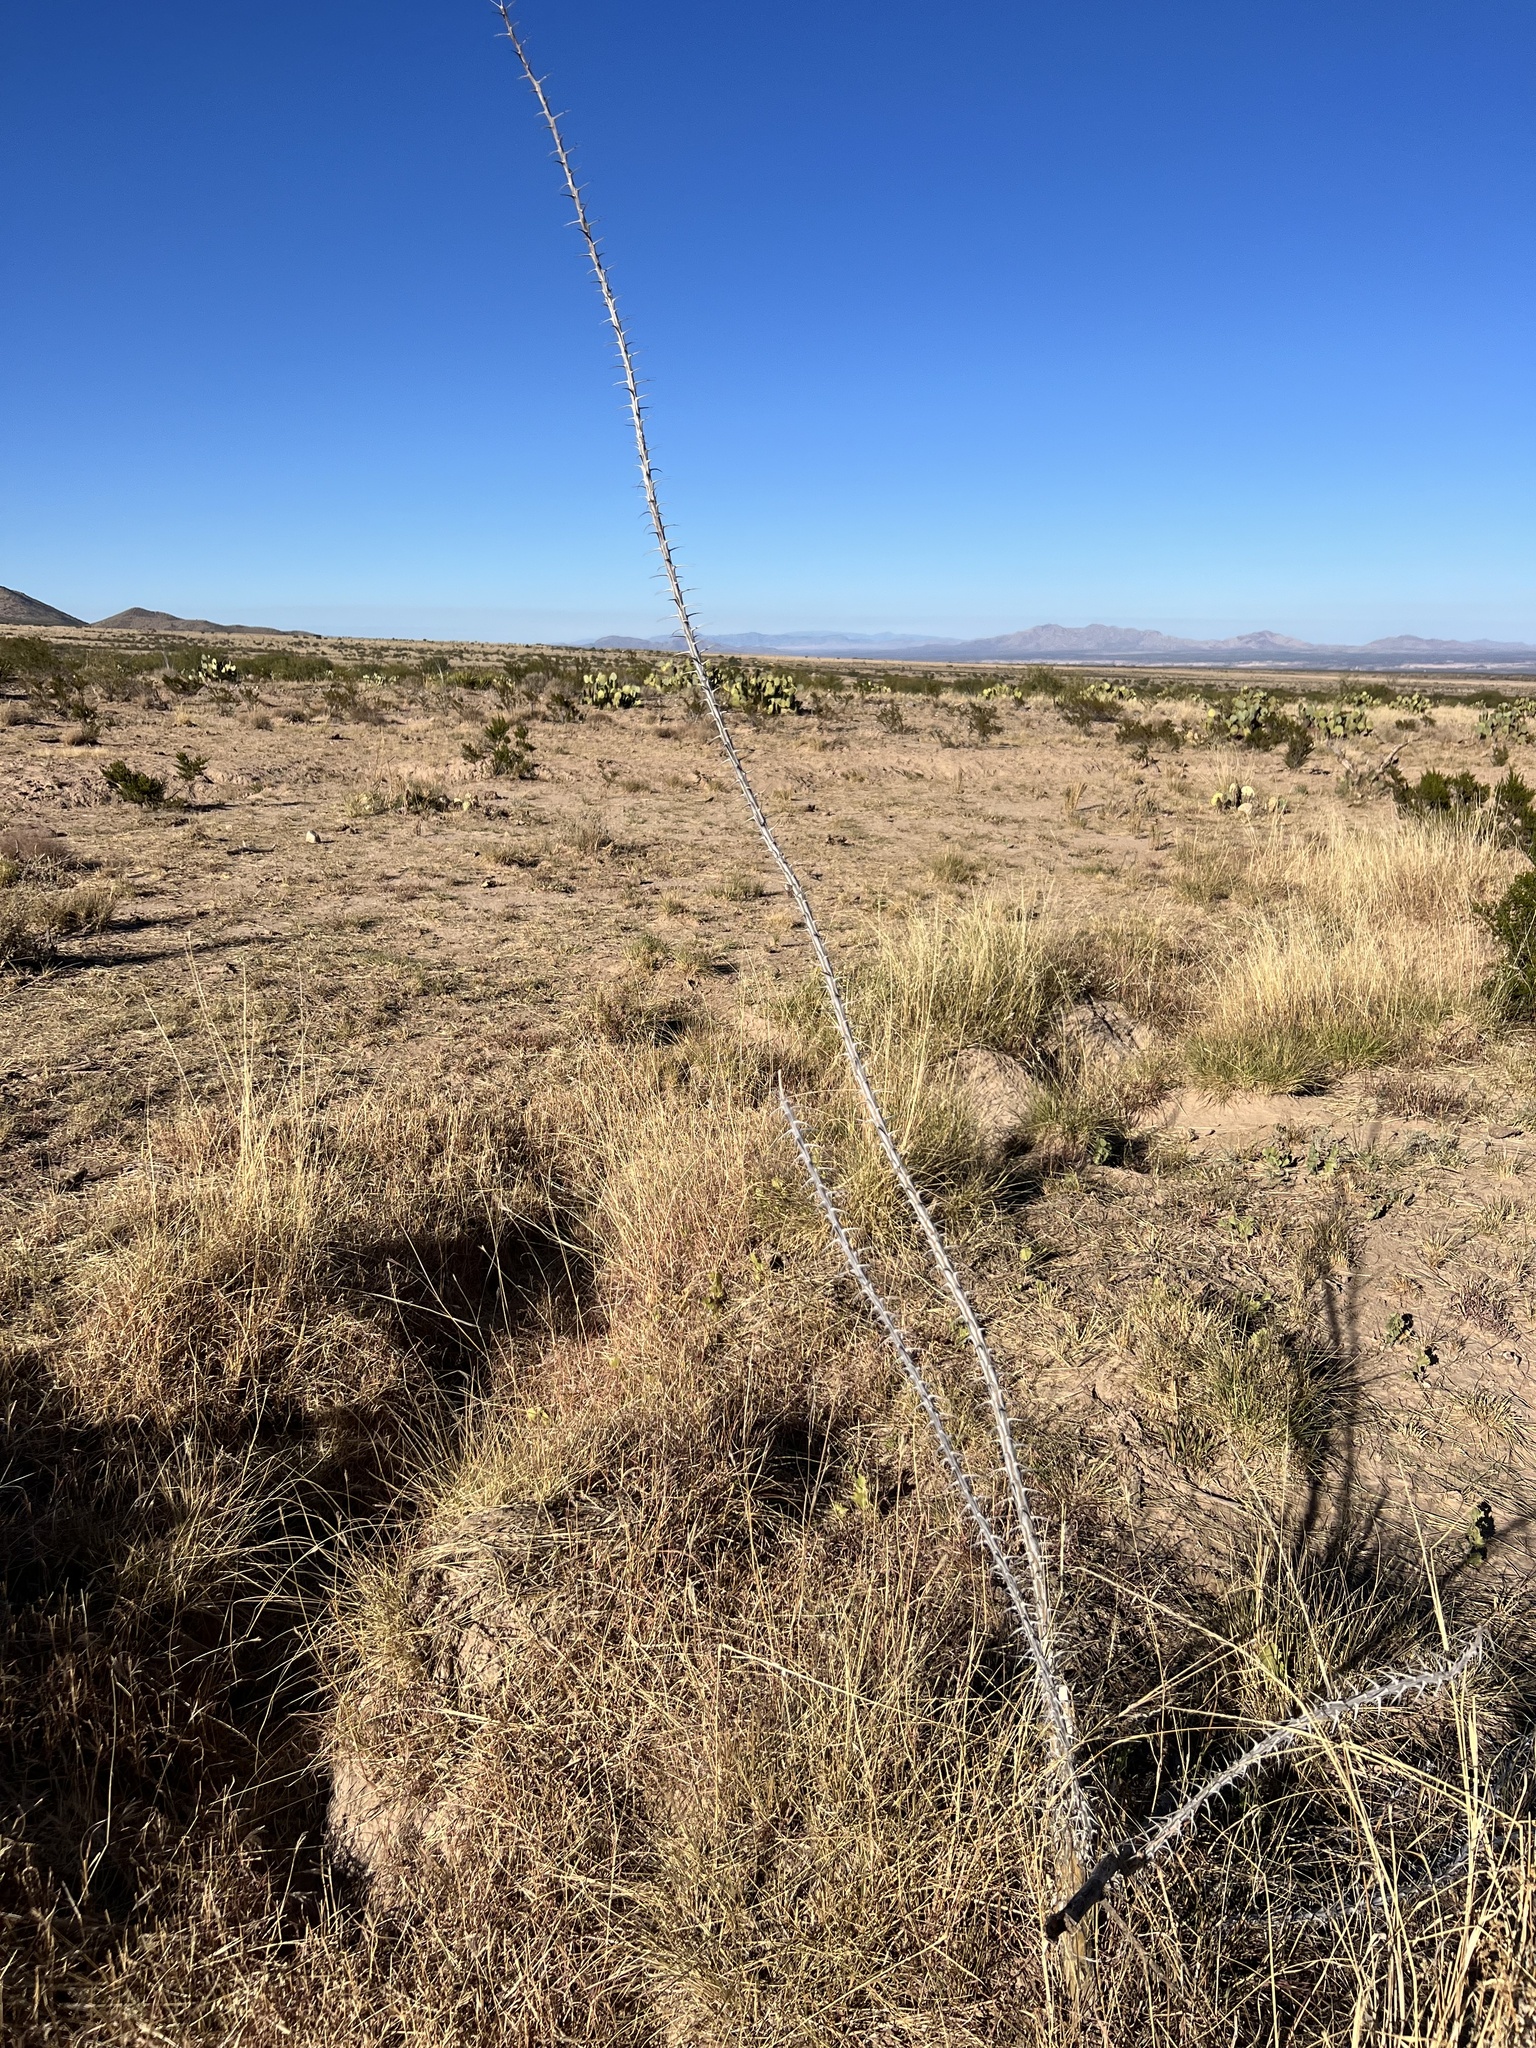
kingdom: Plantae
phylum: Tracheophyta
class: Magnoliopsida
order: Ericales
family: Fouquieriaceae
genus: Fouquieria
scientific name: Fouquieria splendens
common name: Vine-cactus
